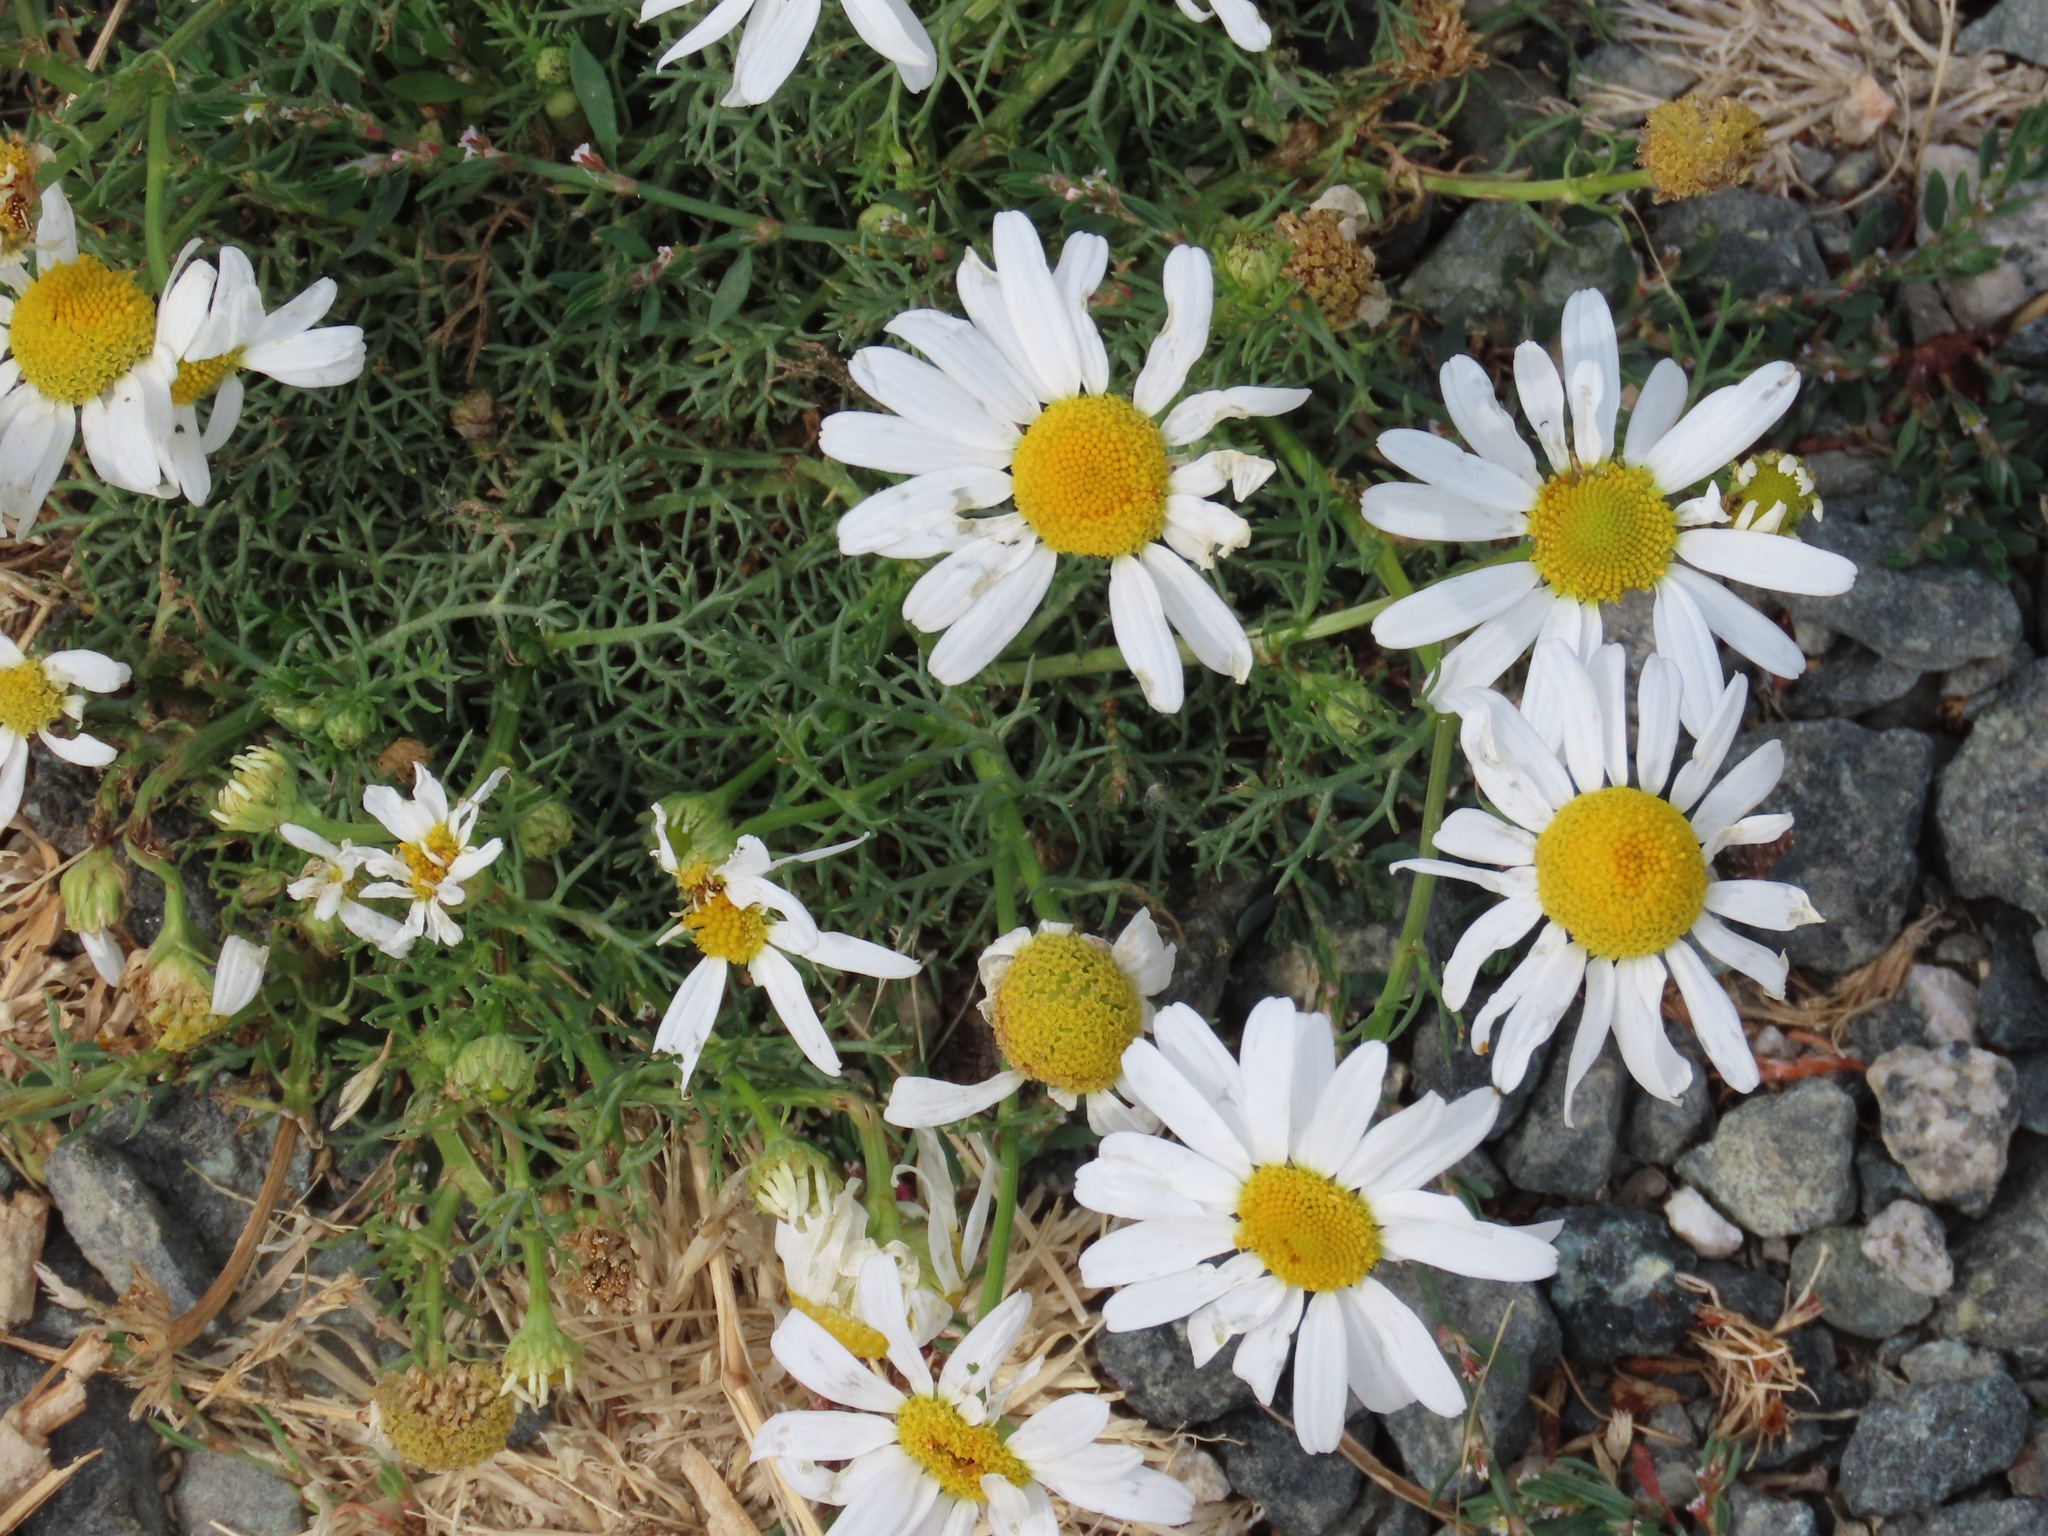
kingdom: Plantae
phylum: Tracheophyta
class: Magnoliopsida
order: Asterales
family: Asteraceae
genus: Tripleurospermum
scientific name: Tripleurospermum inodorum
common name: Scentless mayweed
